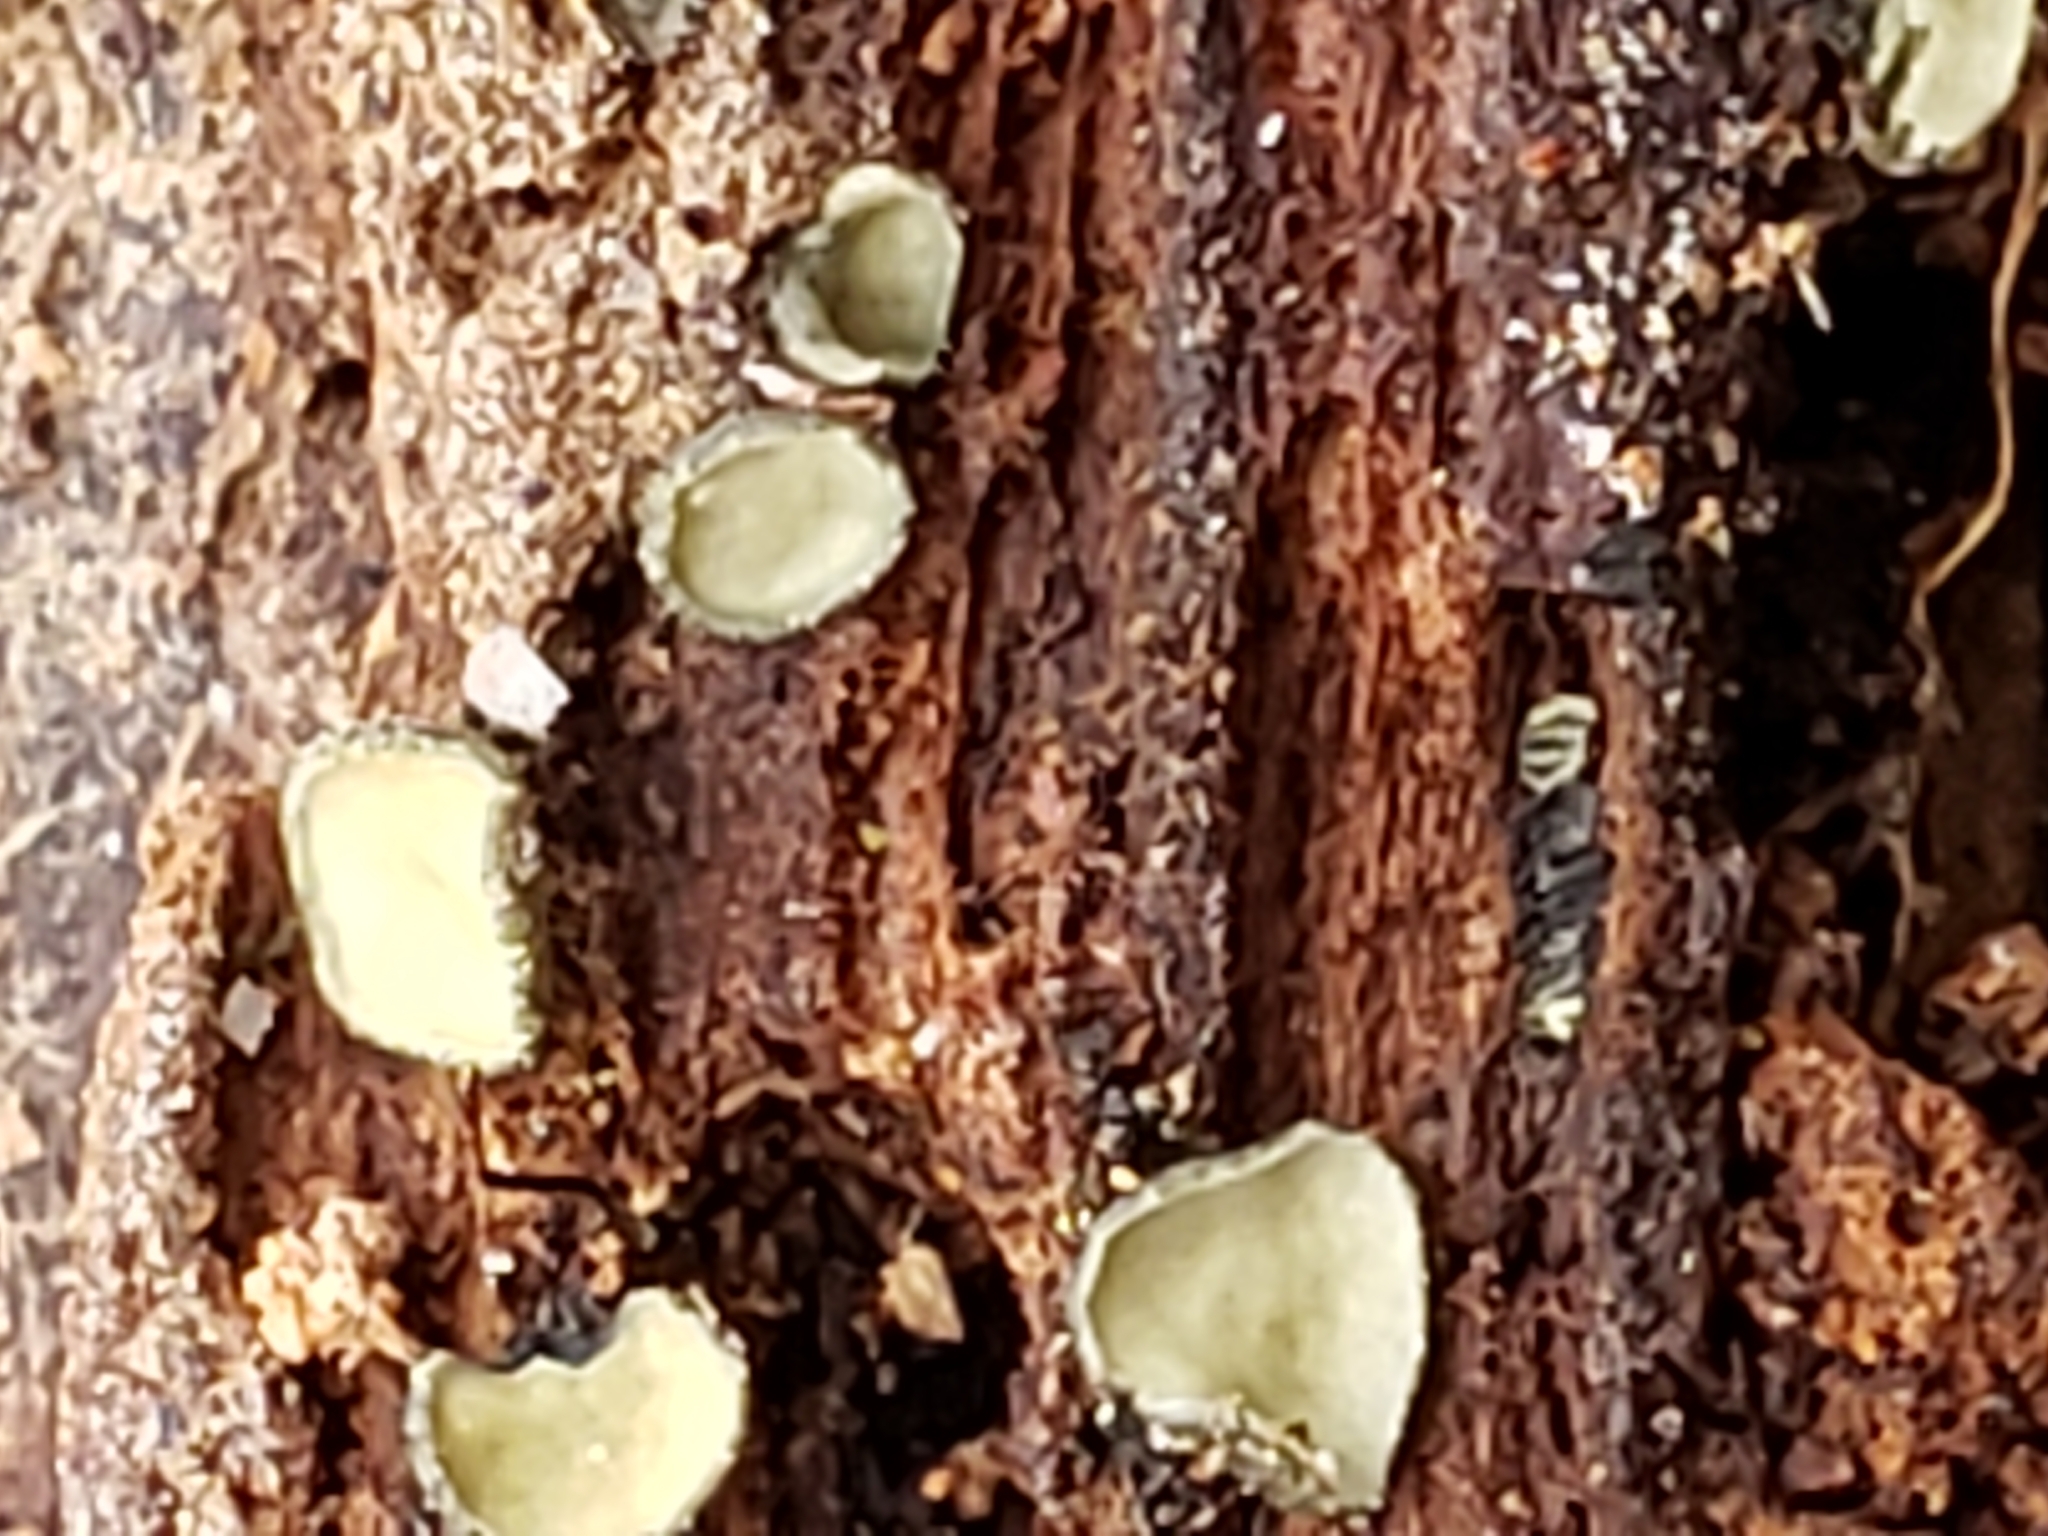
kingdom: Fungi
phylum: Ascomycota
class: Leotiomycetes
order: Helotiales
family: Chlorospleniaceae
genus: Chlorosplenium
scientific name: Chlorosplenium chlora
